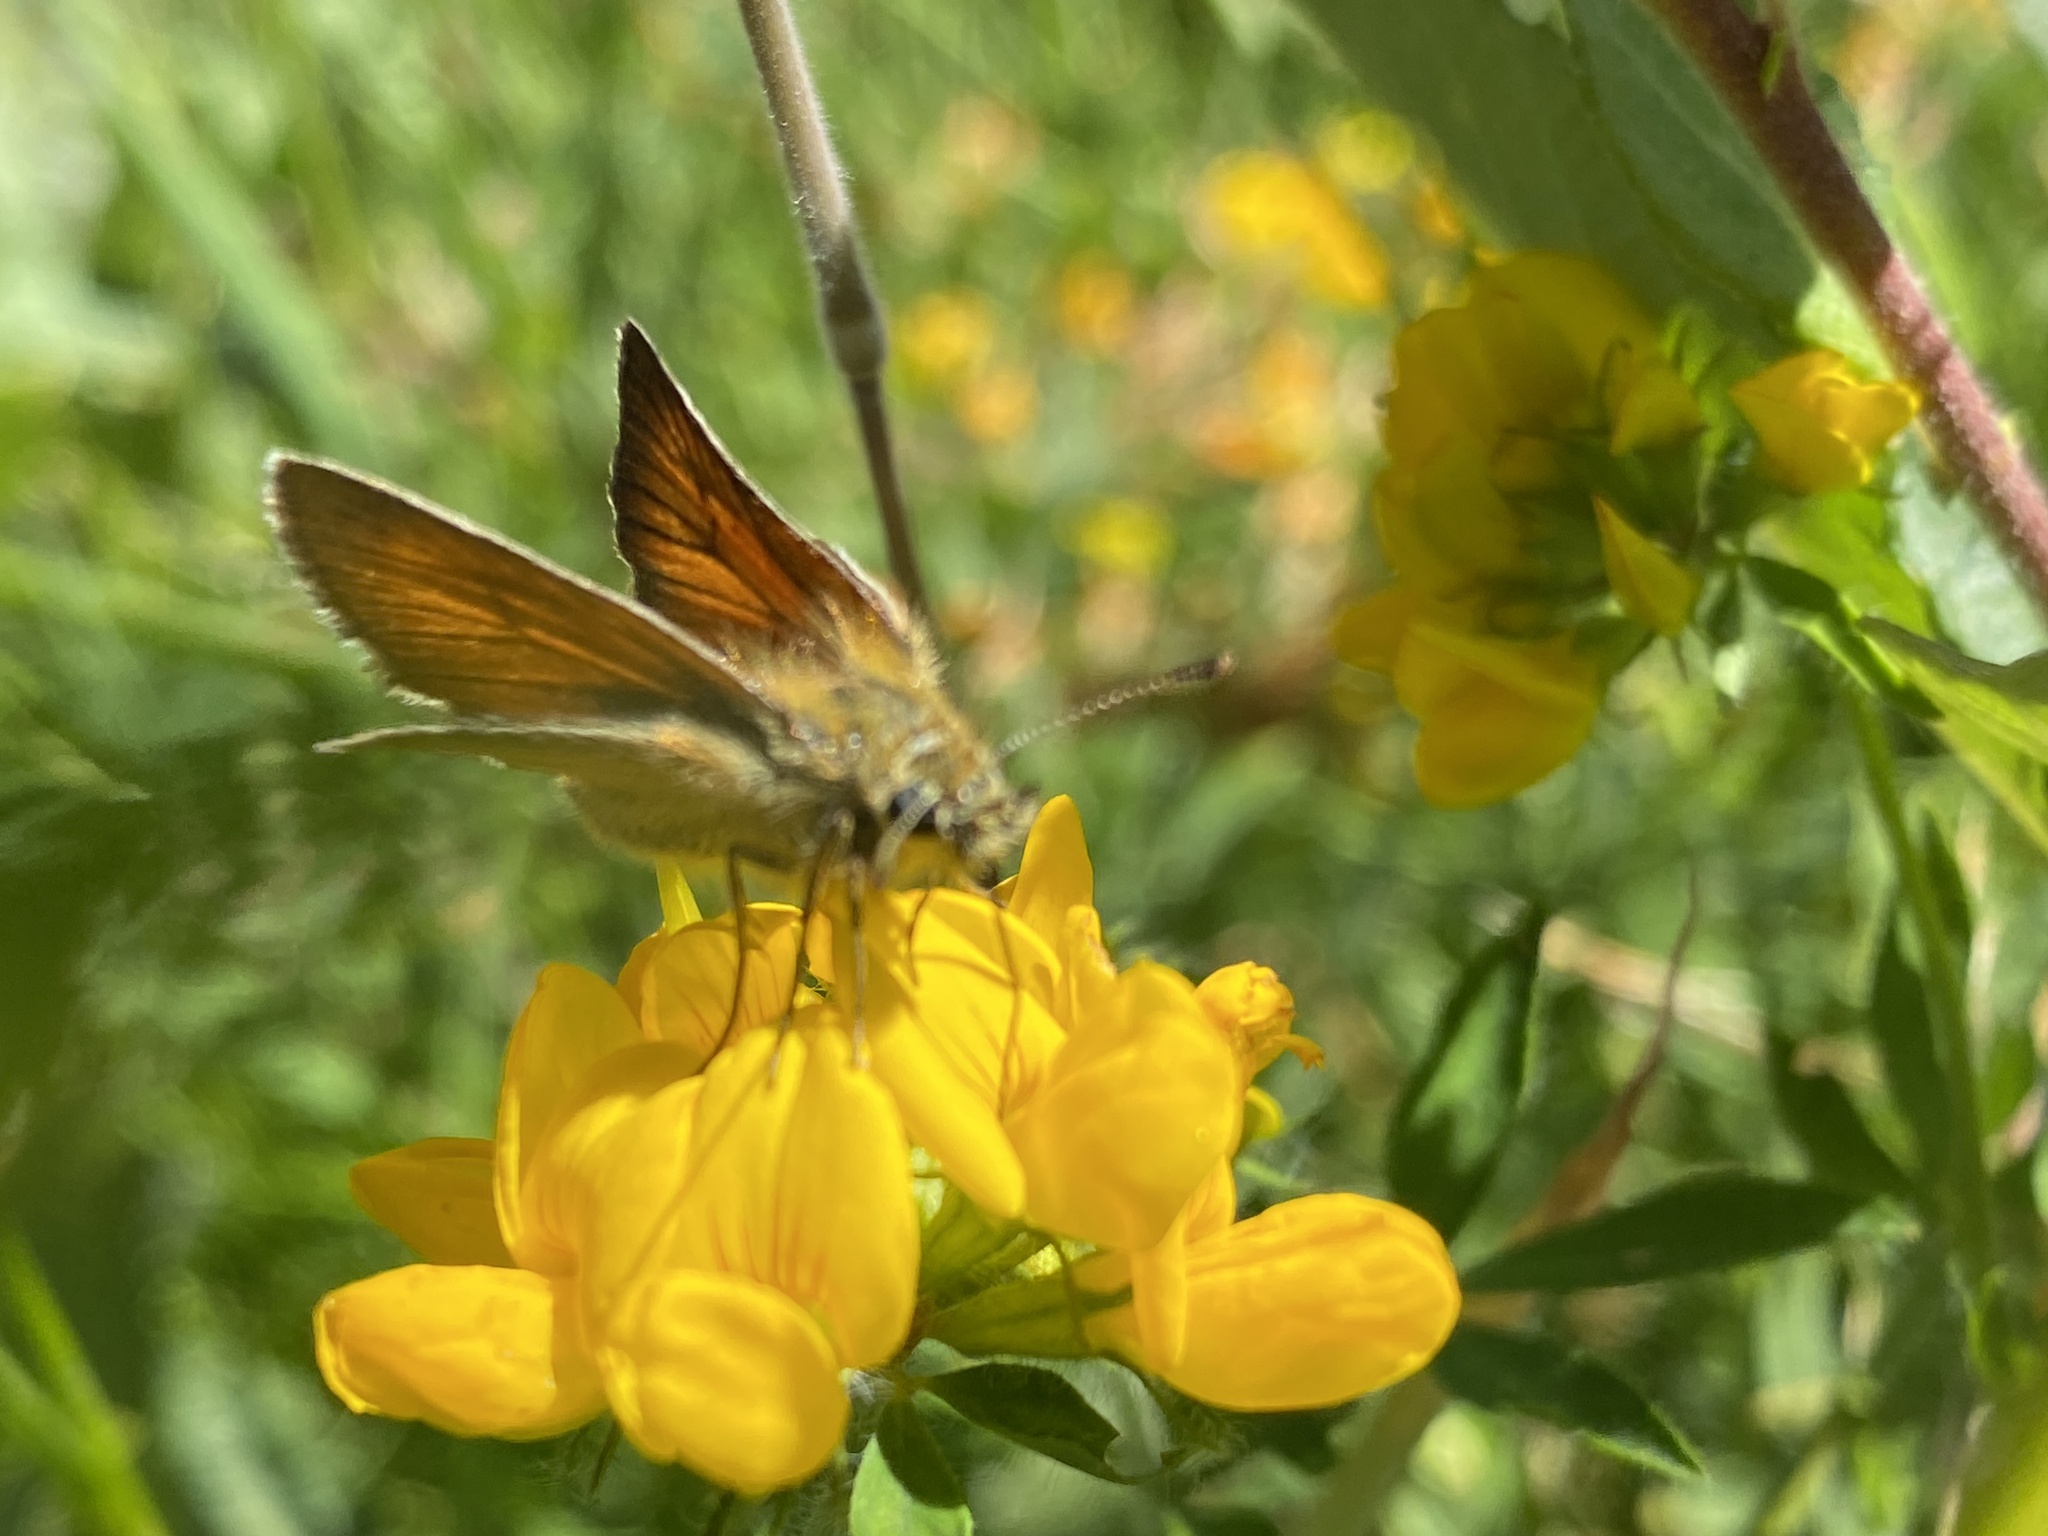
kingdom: Animalia
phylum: Arthropoda
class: Insecta
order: Lepidoptera
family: Hesperiidae
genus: Thymelicus
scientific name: Thymelicus sylvestris
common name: Small skipper
